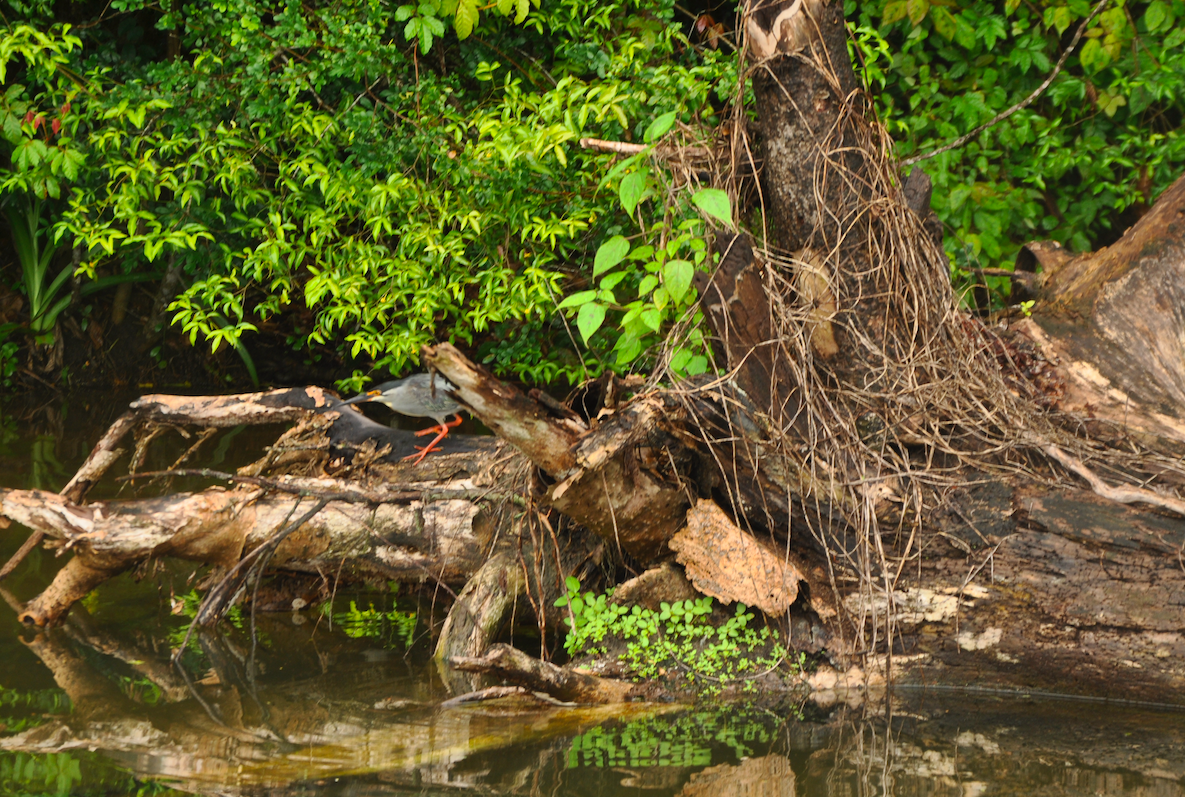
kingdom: Animalia
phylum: Chordata
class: Aves
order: Pelecaniformes
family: Ardeidae
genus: Butorides
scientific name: Butorides striata
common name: Striated heron
